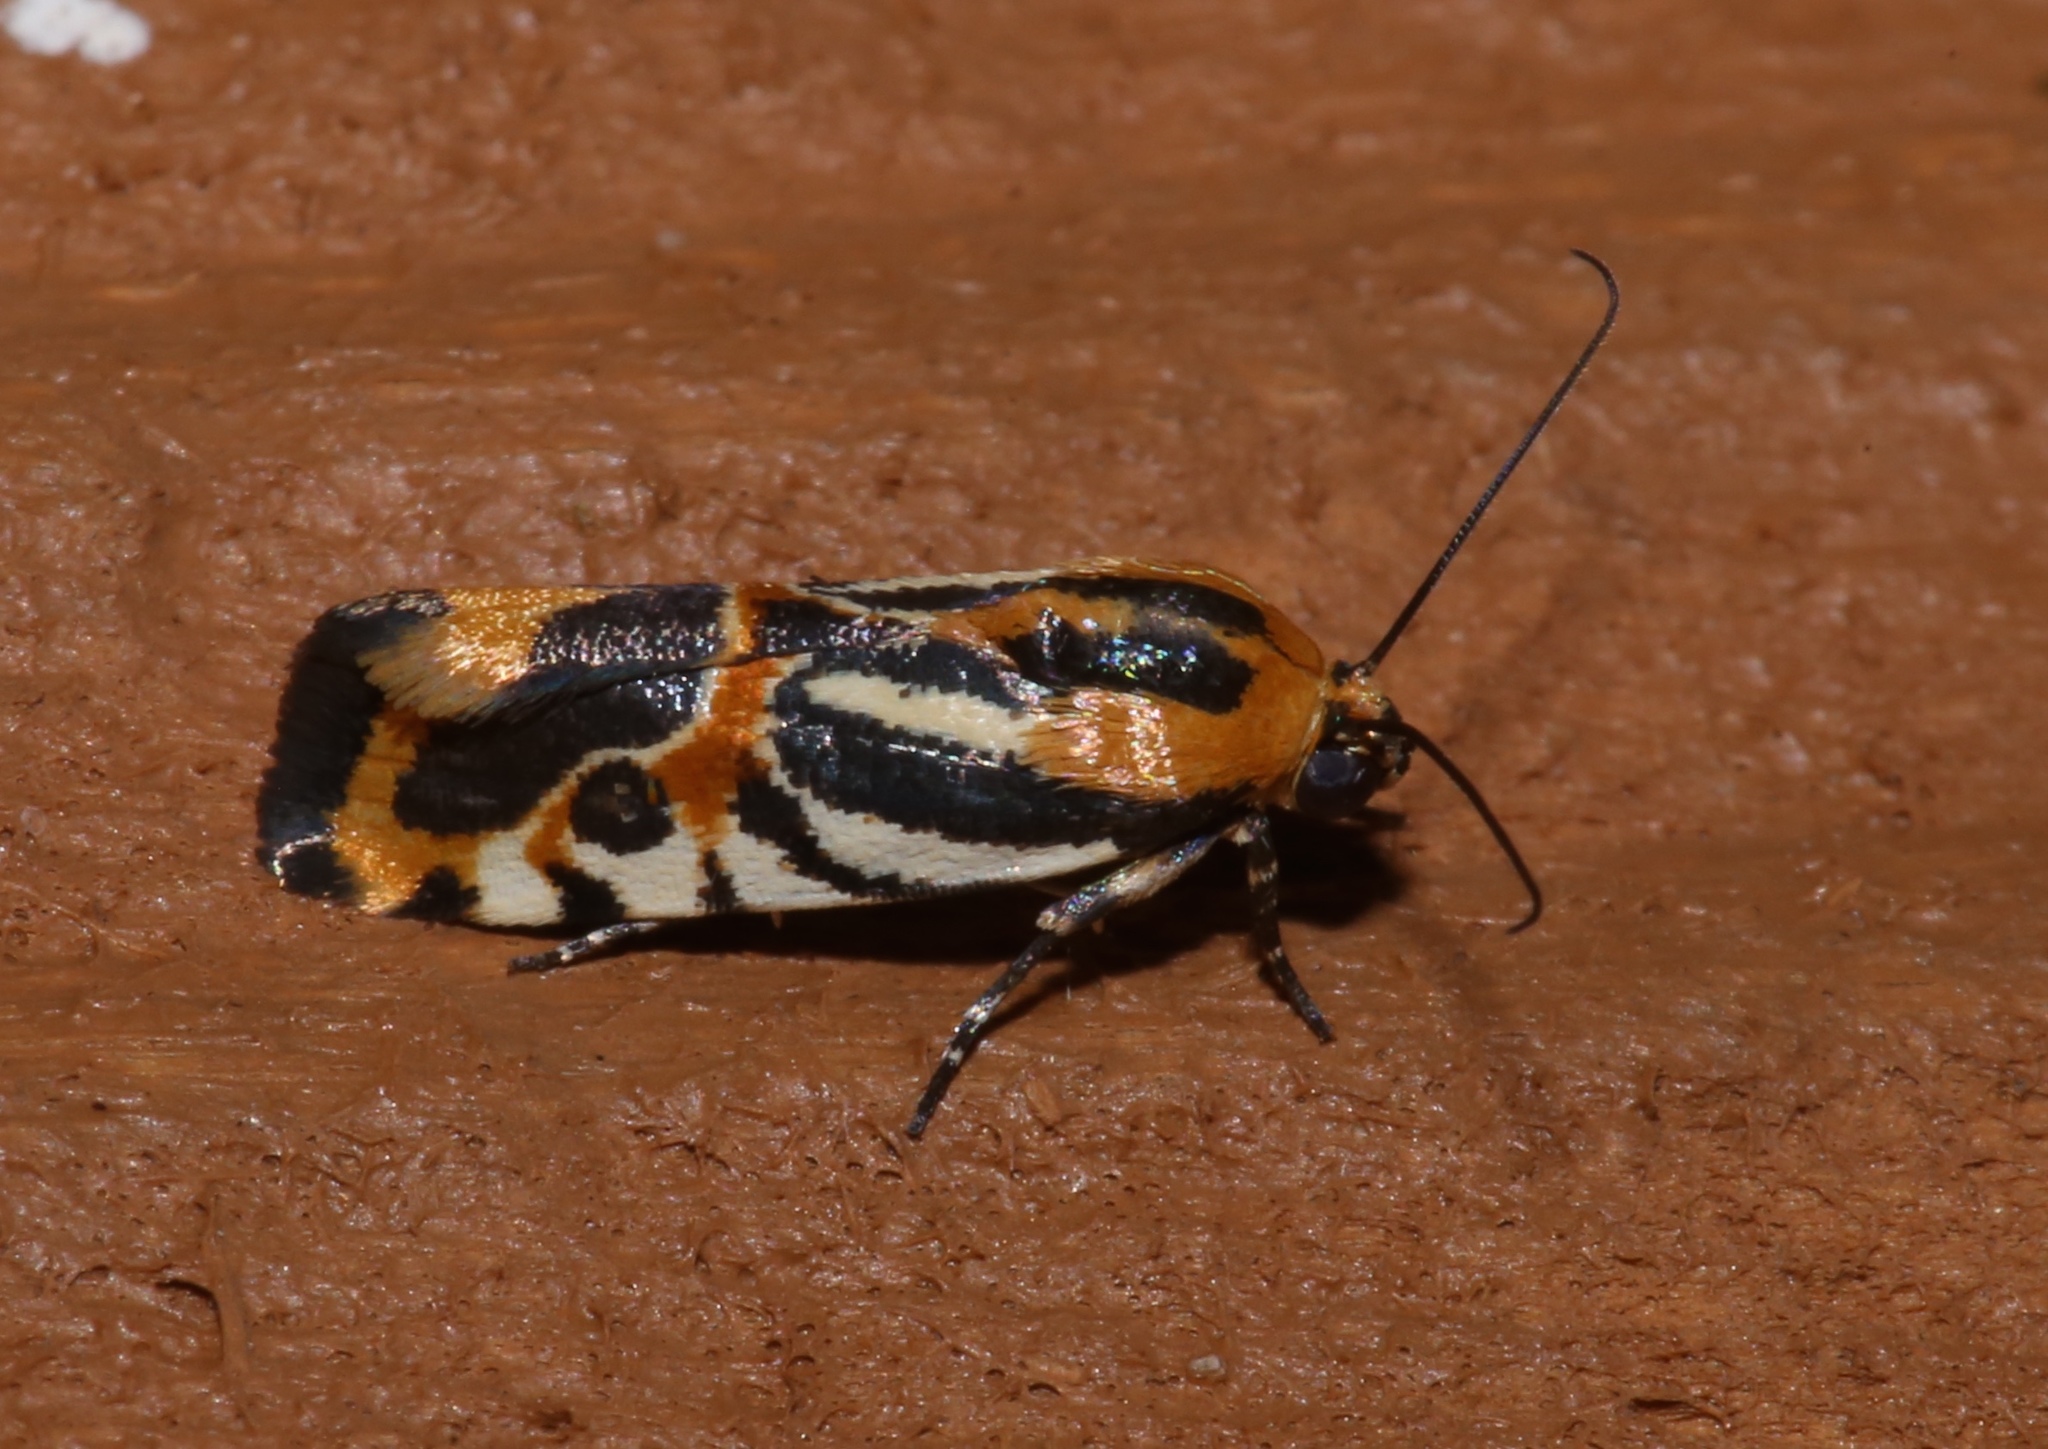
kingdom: Animalia
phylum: Arthropoda
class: Insecta
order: Lepidoptera
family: Noctuidae
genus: Acontia
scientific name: Acontia onagrus
